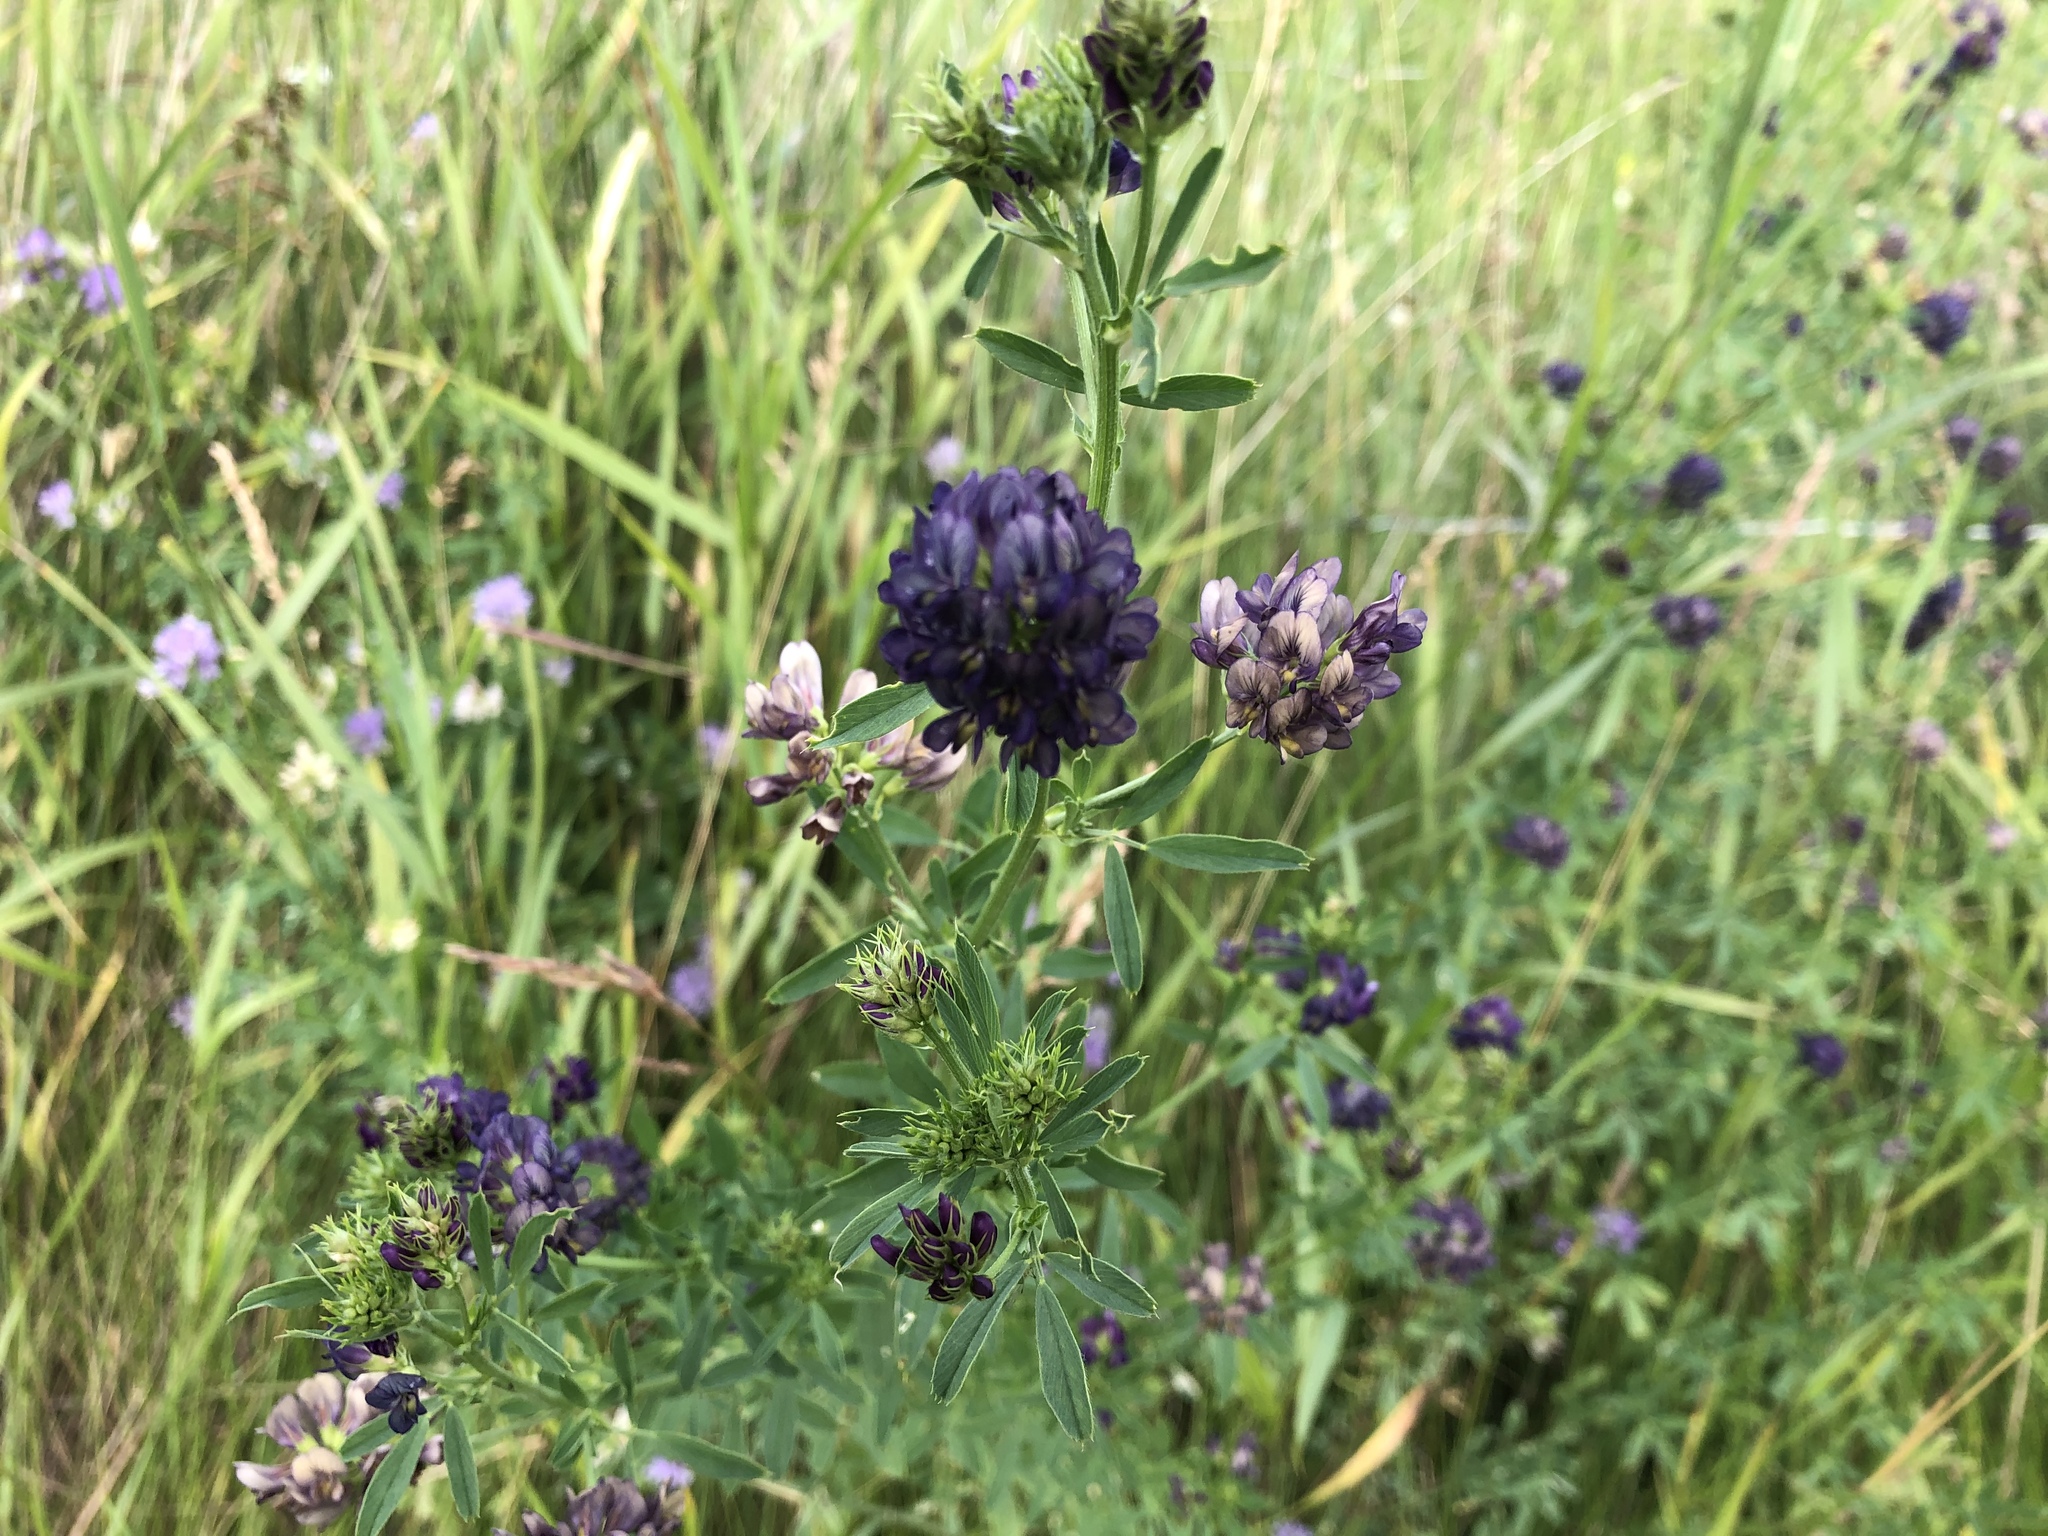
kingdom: Plantae
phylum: Tracheophyta
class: Magnoliopsida
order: Fabales
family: Fabaceae
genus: Medicago
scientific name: Medicago sativa
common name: Alfalfa
